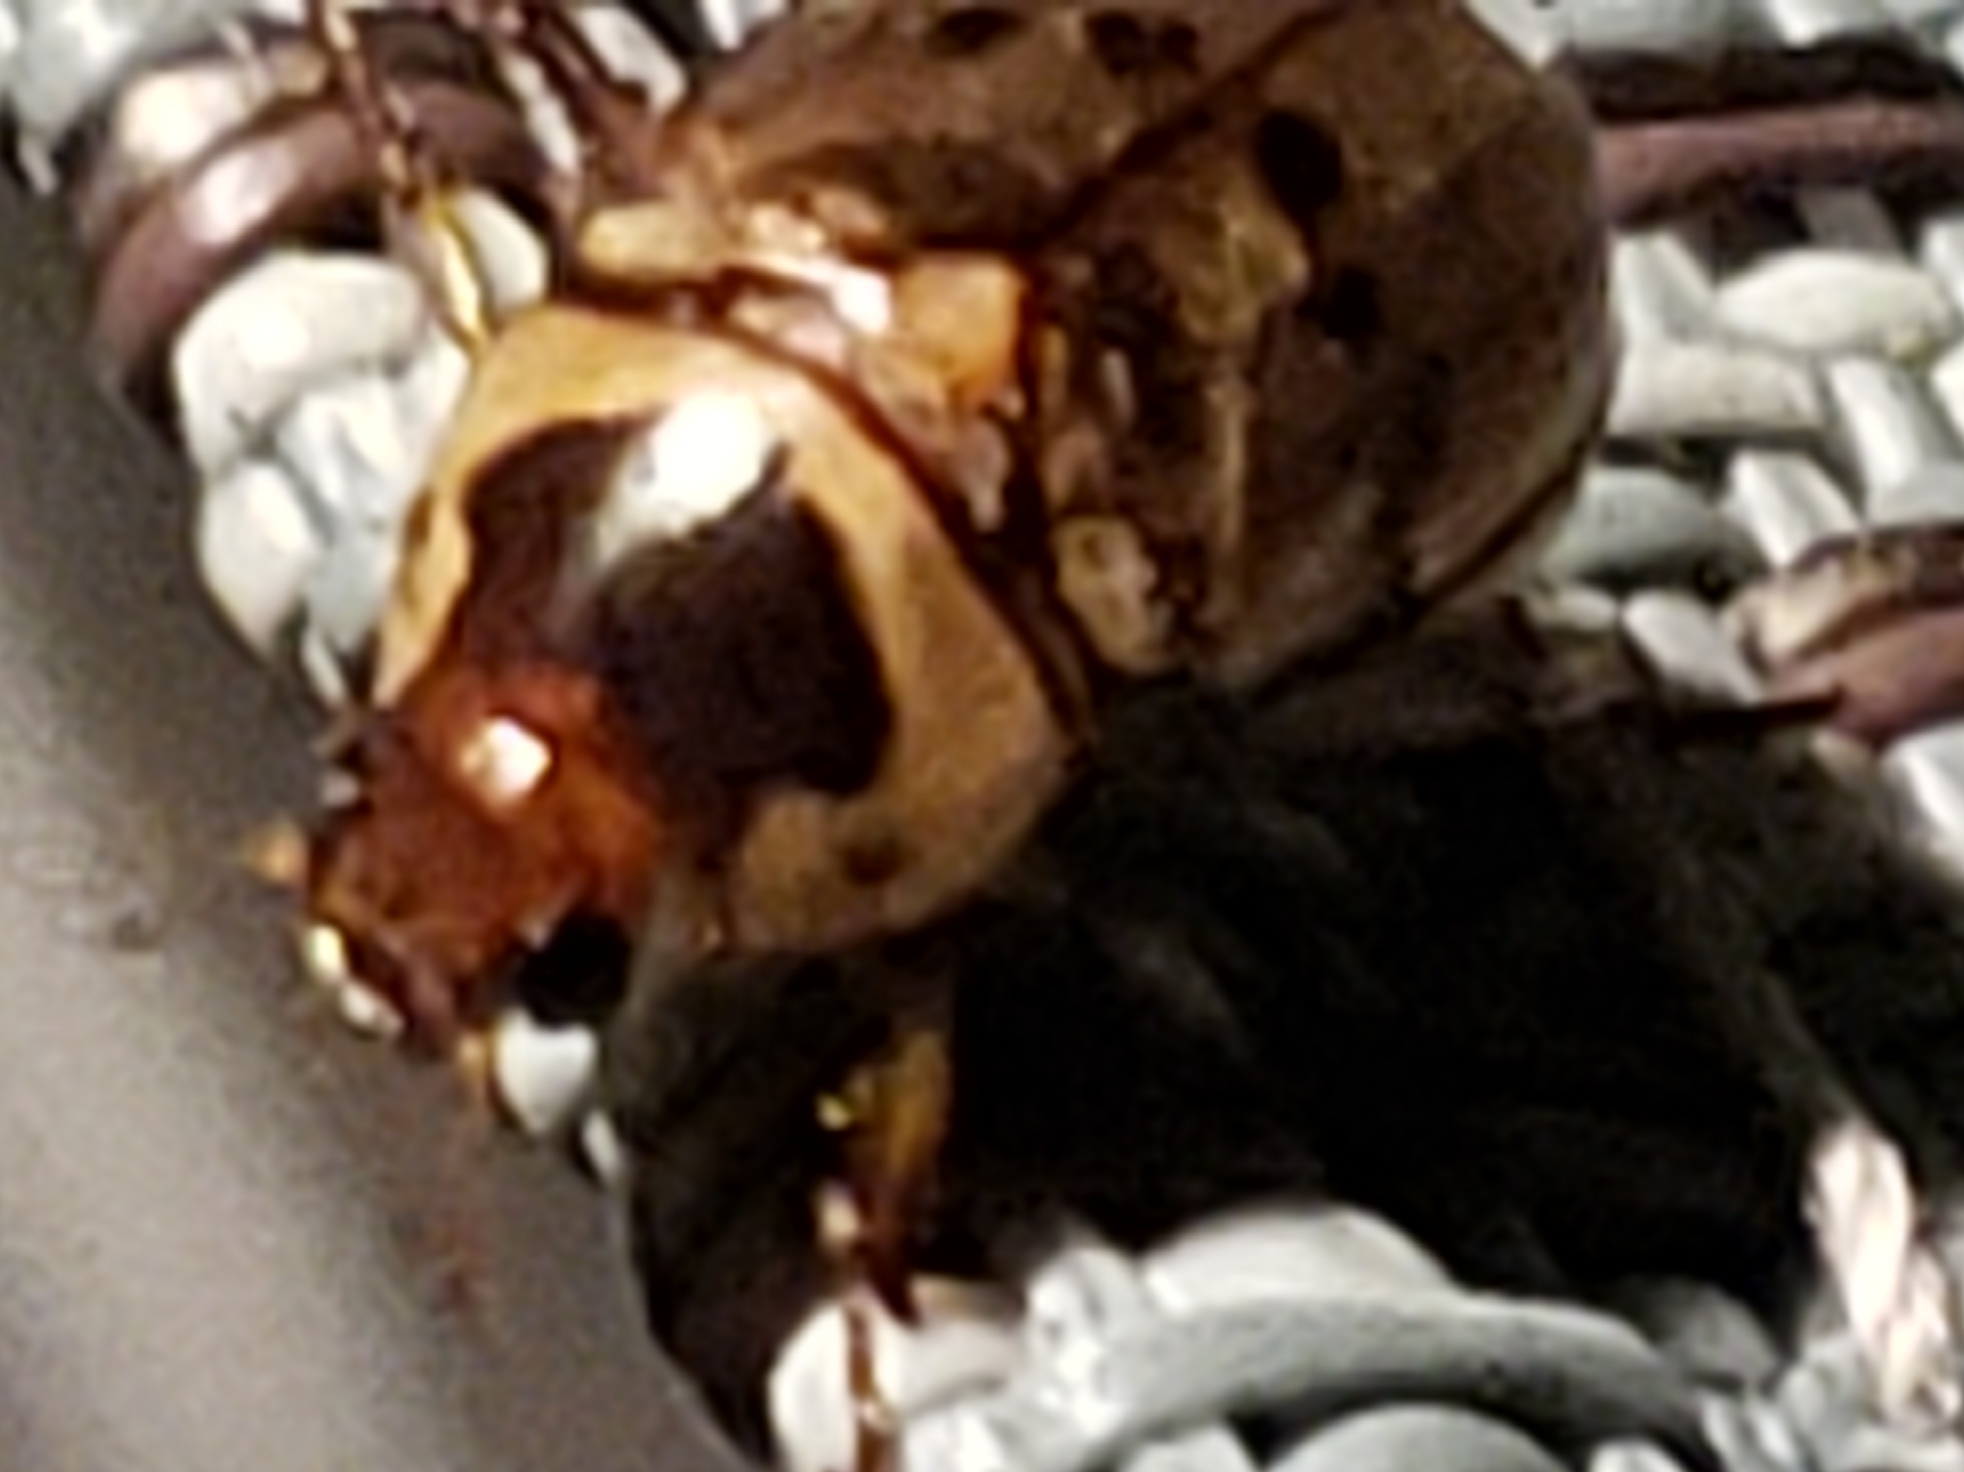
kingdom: Animalia
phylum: Arthropoda
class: Insecta
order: Coleoptera
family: Scarabaeidae
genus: Anomala
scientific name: Anomala innuba
